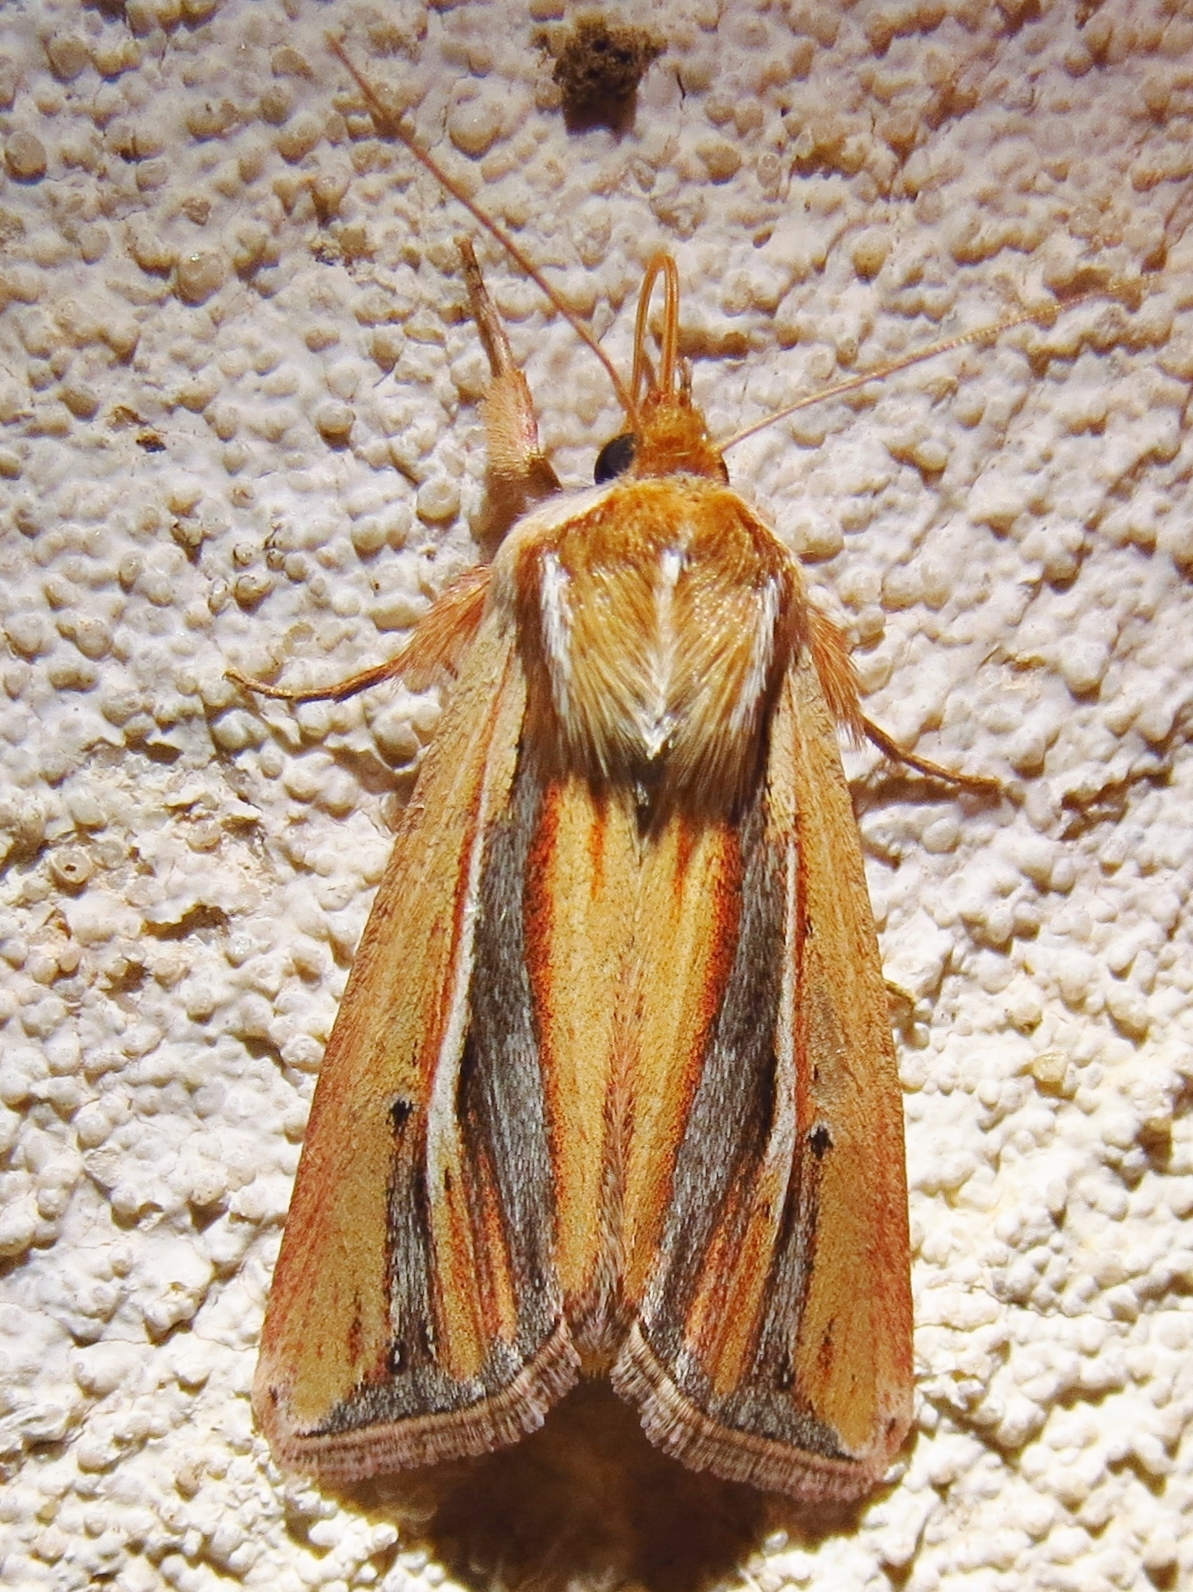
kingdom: Animalia
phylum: Arthropoda
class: Insecta
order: Lepidoptera
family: Noctuidae
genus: Dargida
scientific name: Dargida diffusa
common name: Wheat head armyworm
